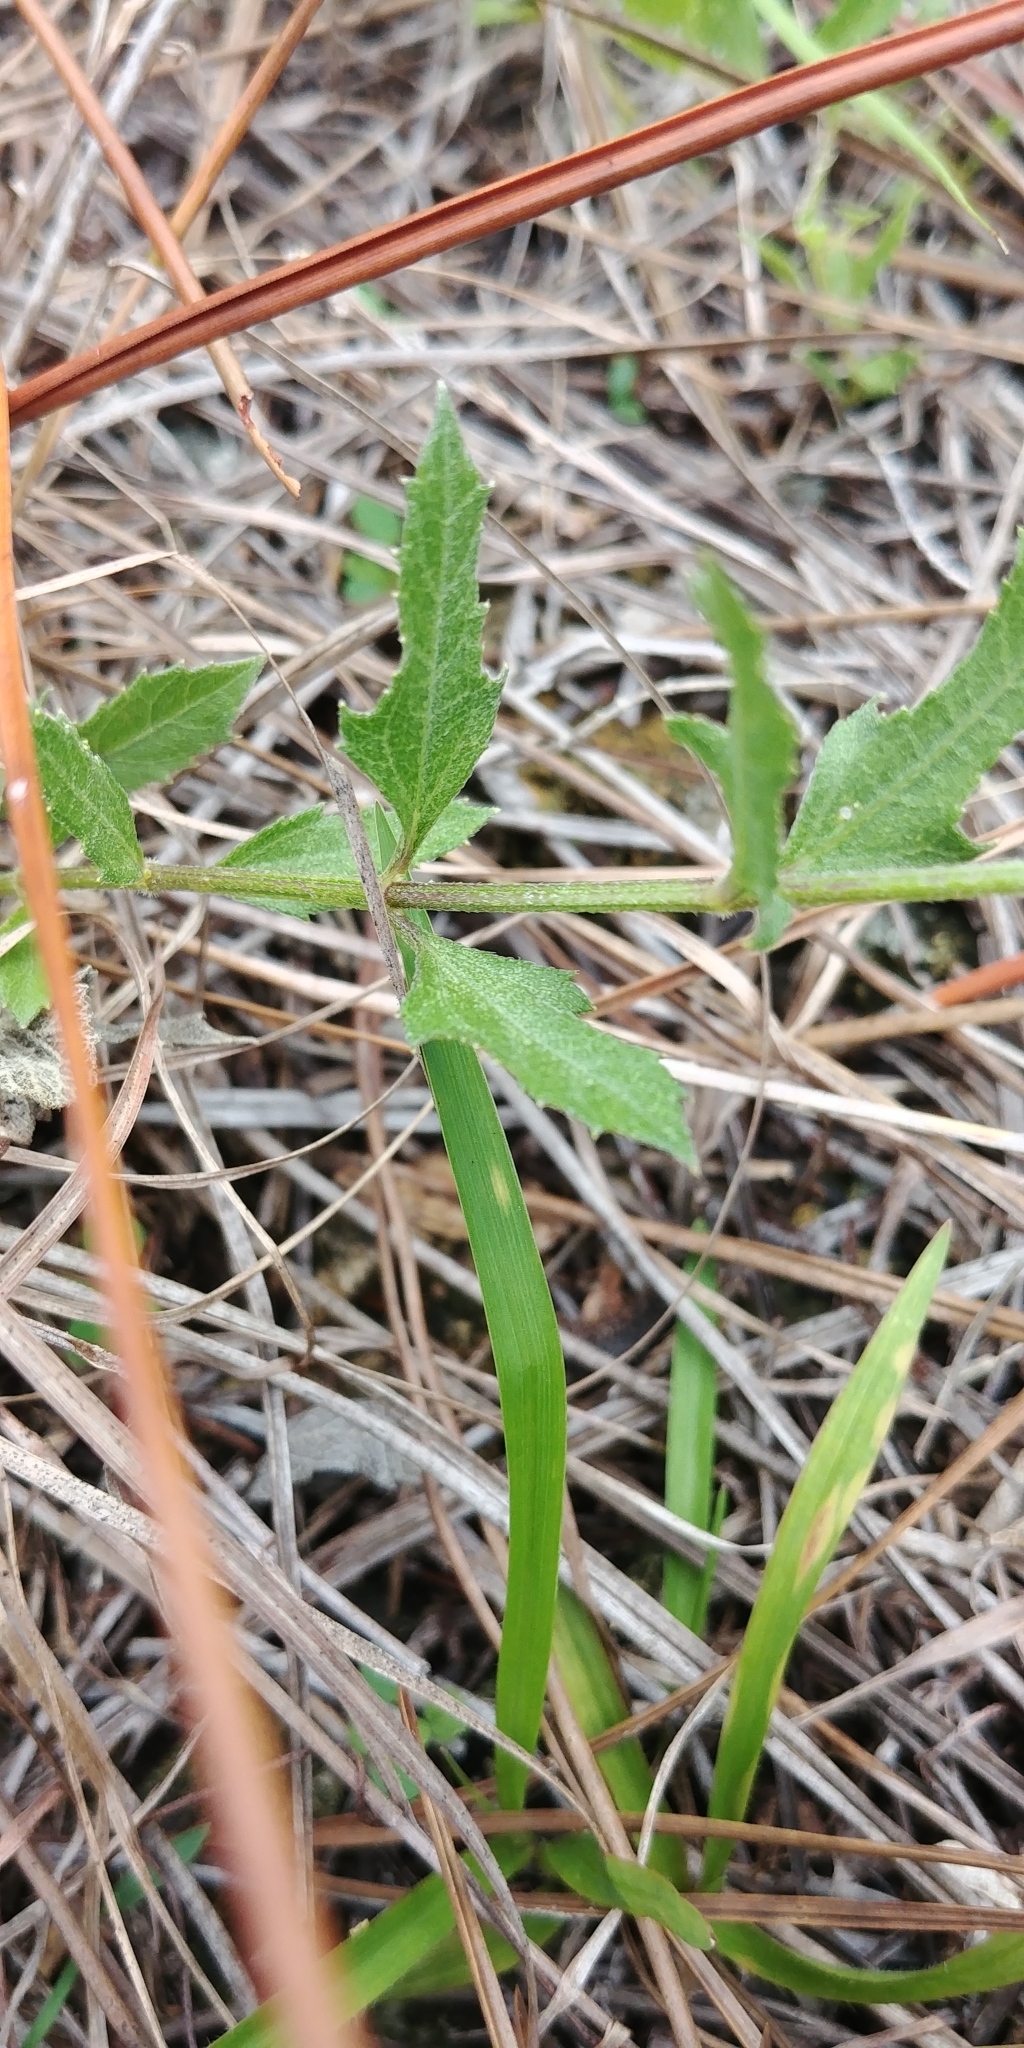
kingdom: Plantae
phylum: Tracheophyta
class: Magnoliopsida
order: Asterales
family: Asteraceae
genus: Melanthera
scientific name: Melanthera nivea
